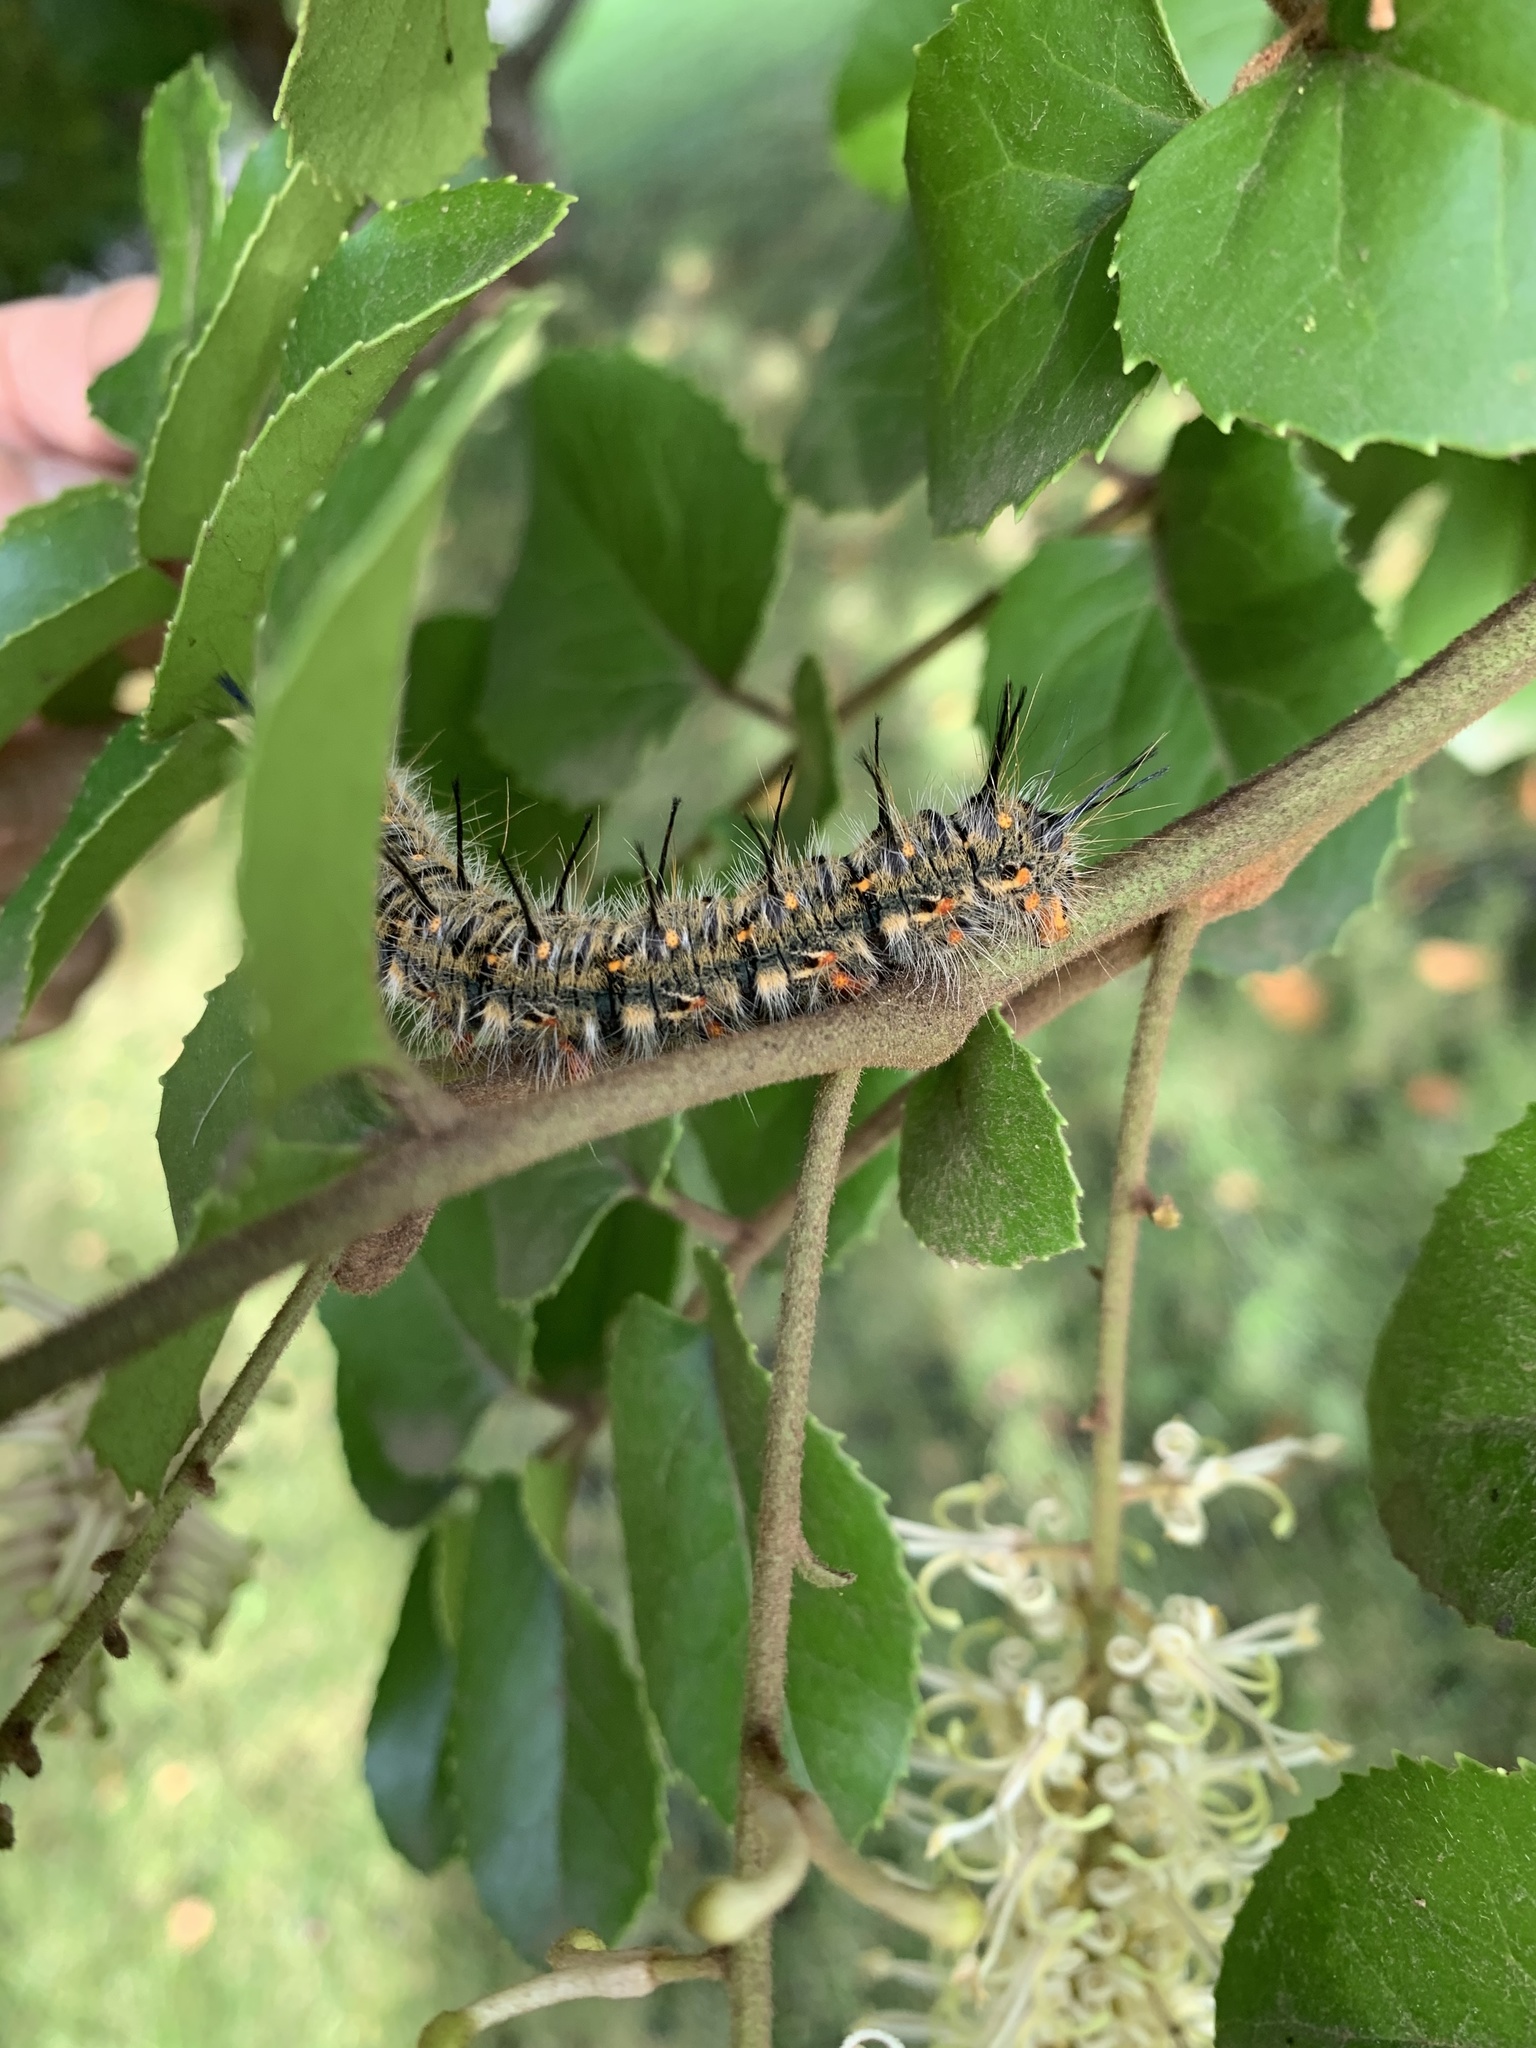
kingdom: Animalia
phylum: Arthropoda
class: Insecta
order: Lepidoptera
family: Lasiocampidae
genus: Macromphalia
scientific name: Macromphalia ancilla
